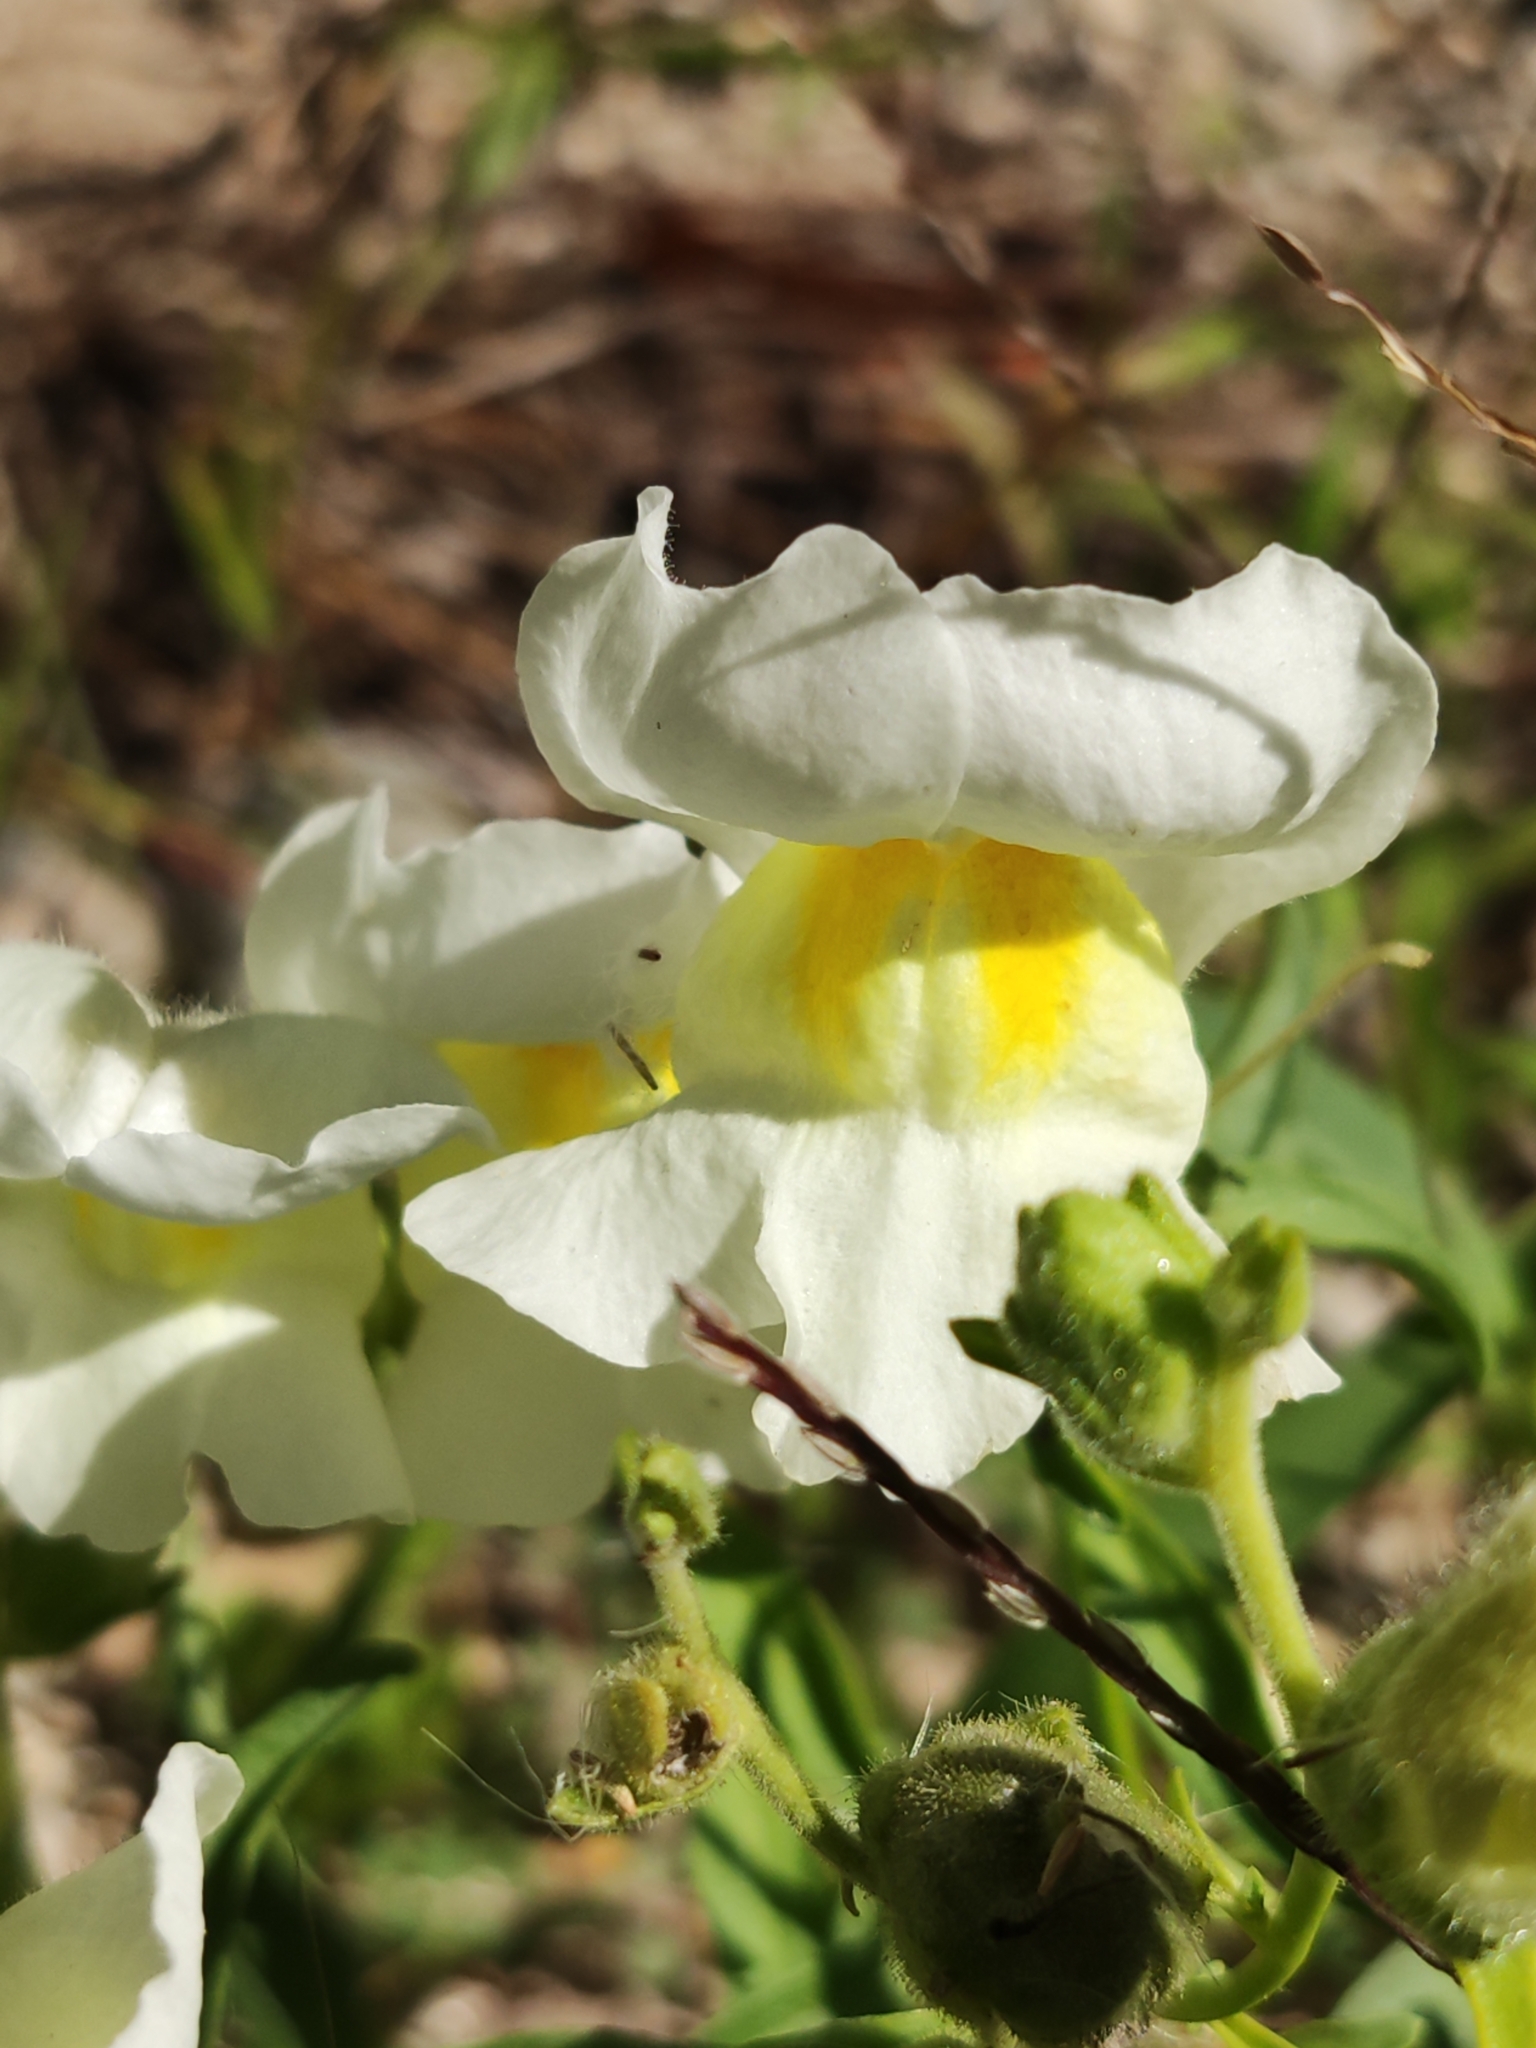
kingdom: Plantae
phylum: Tracheophyta
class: Magnoliopsida
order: Lamiales
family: Plantaginaceae
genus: Antirrhinum
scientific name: Antirrhinum majus
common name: Snapdragon
